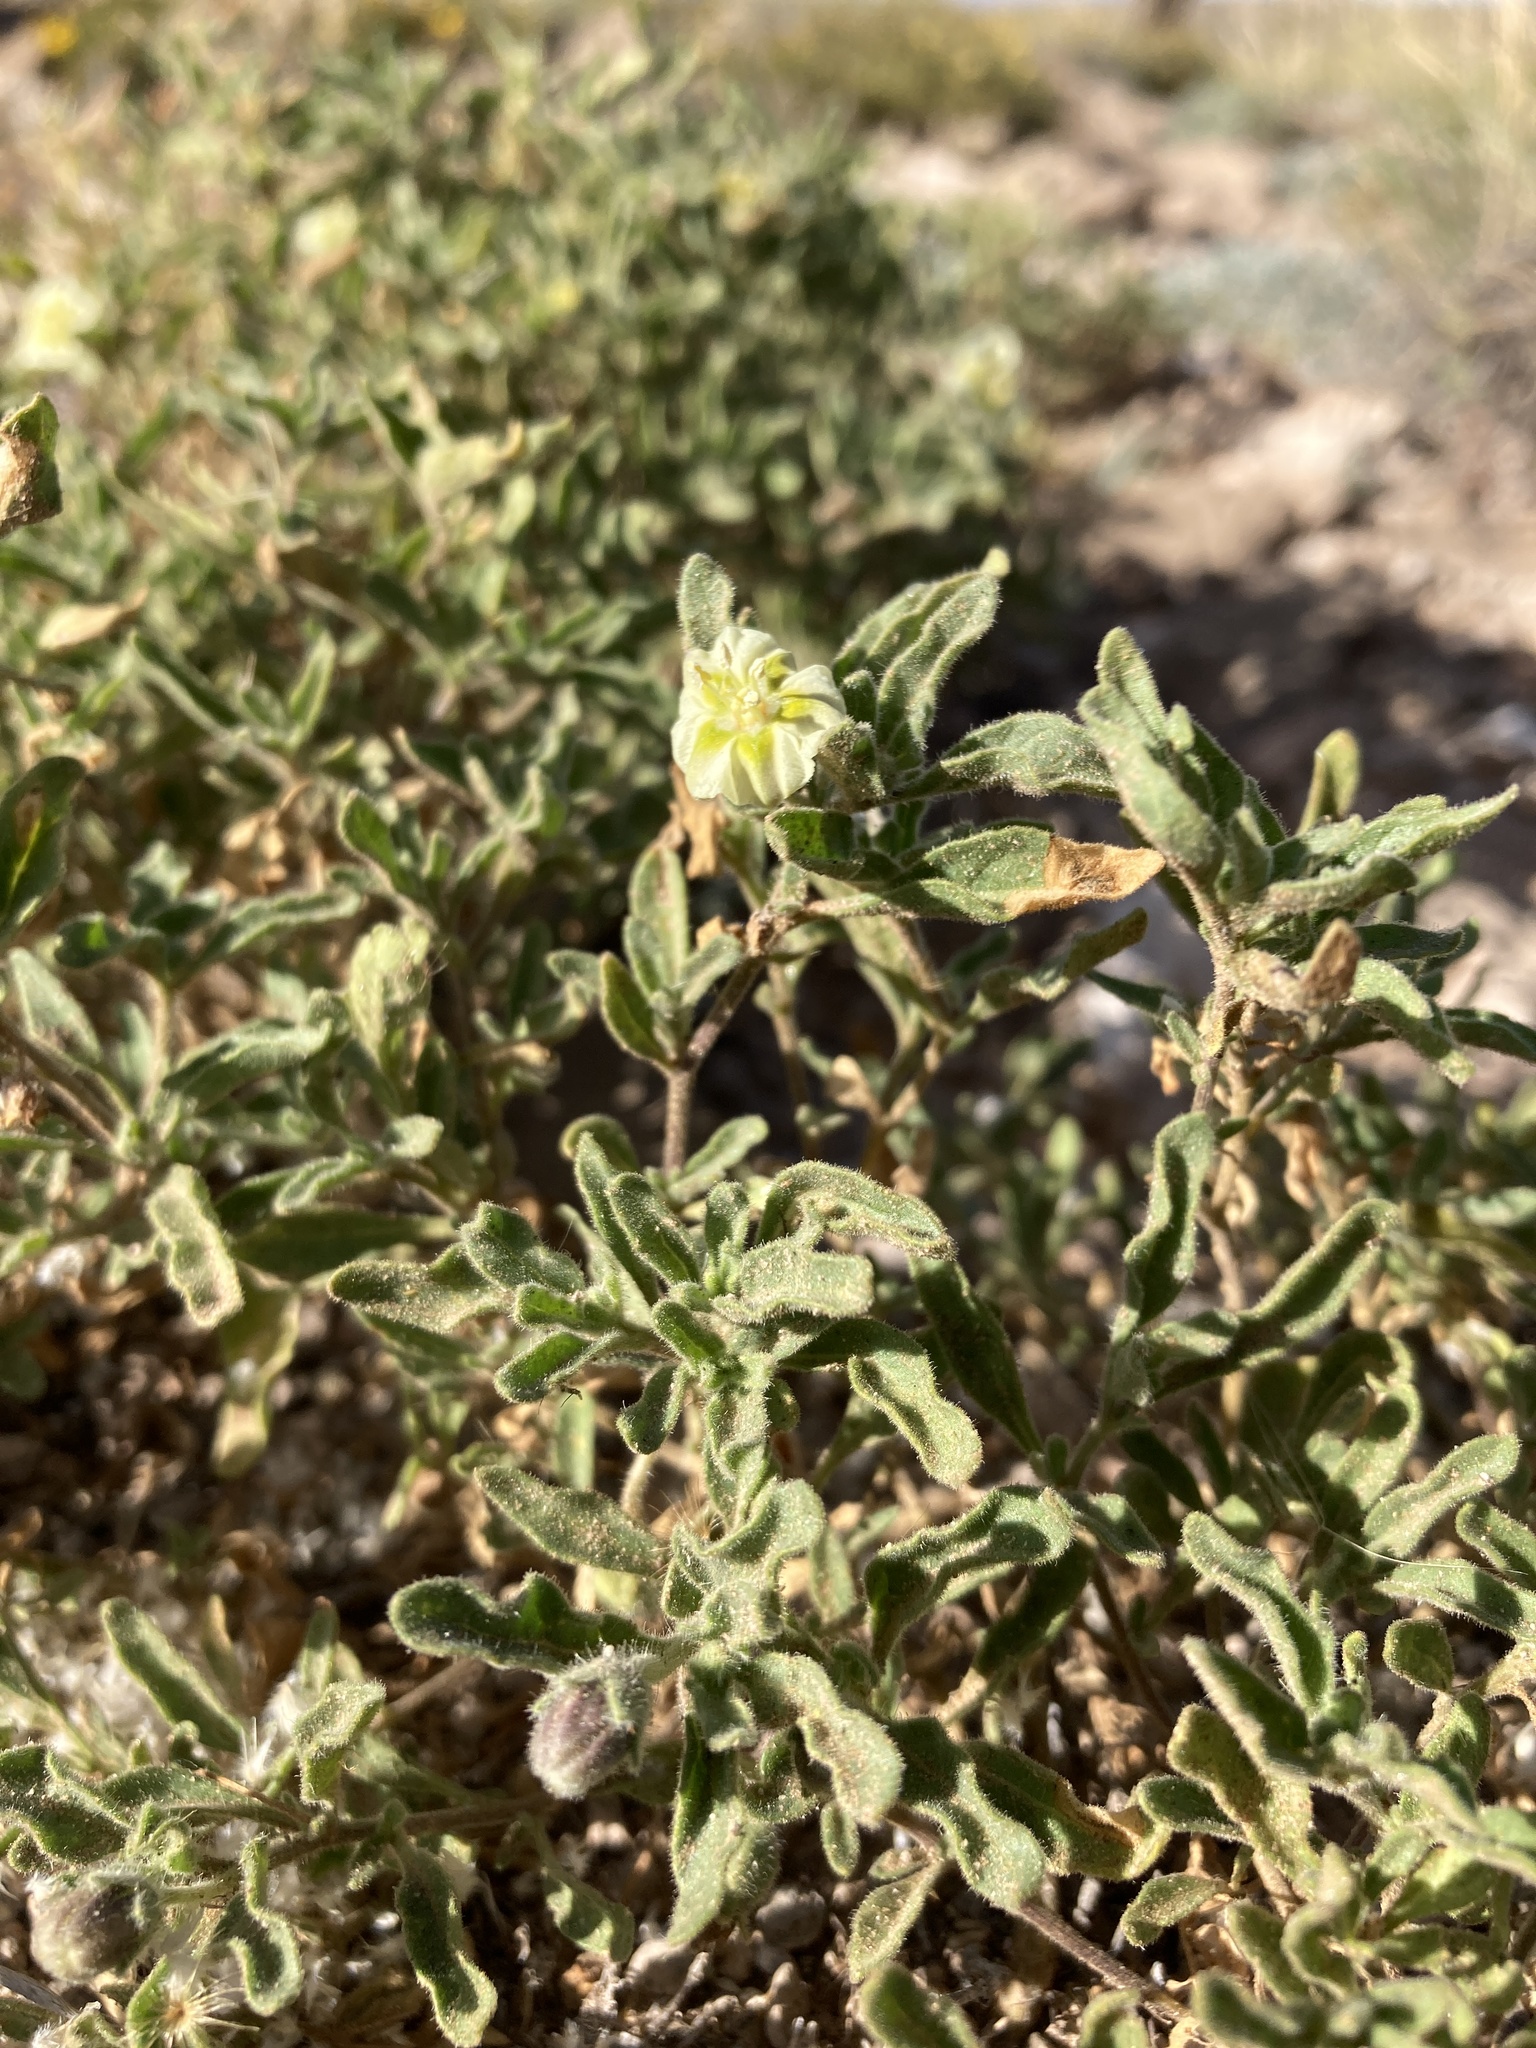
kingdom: Plantae
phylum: Tracheophyta
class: Magnoliopsida
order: Solanales
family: Solanaceae
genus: Chamaesaracha
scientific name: Chamaesaracha sordida
